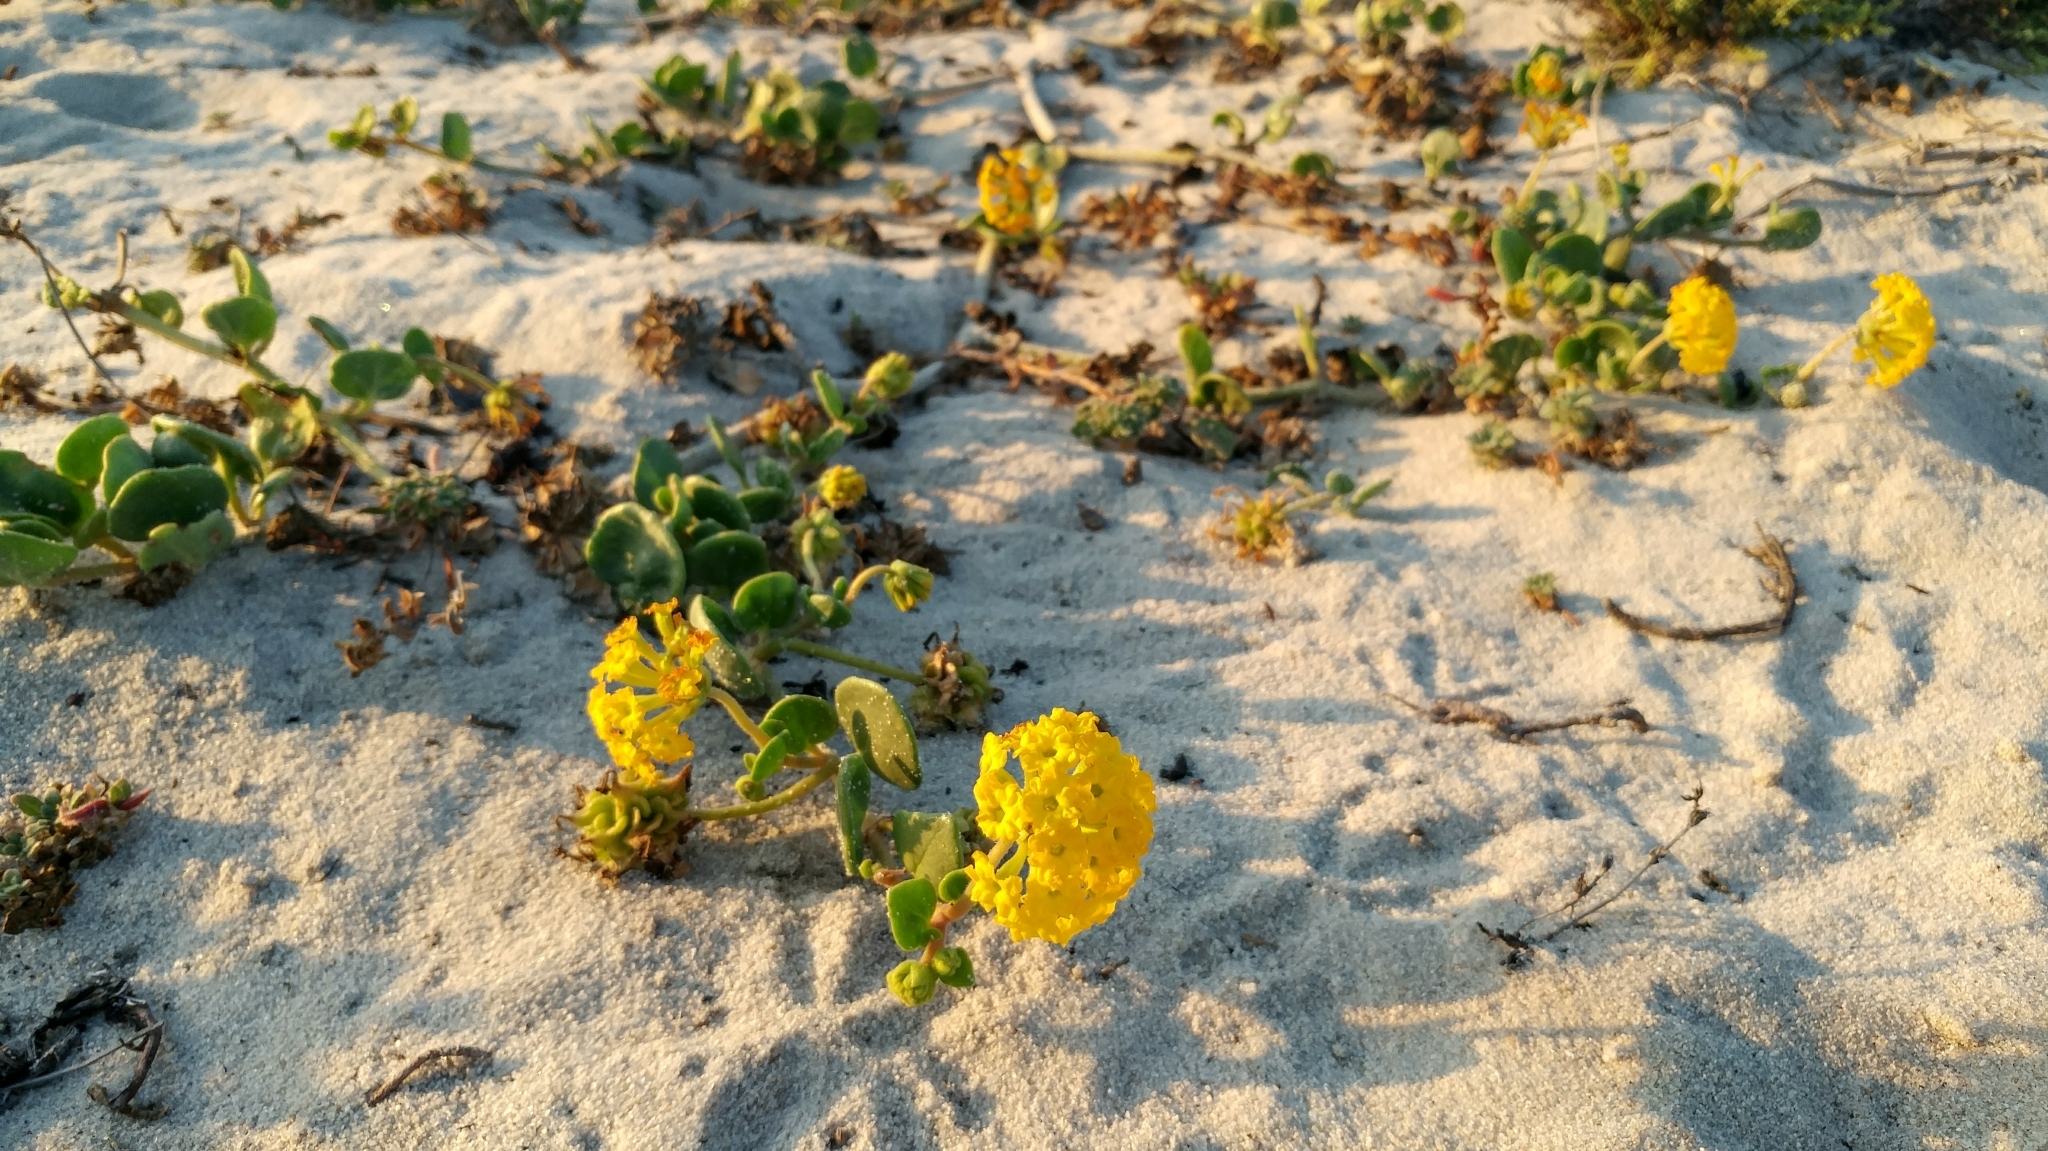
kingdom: Plantae
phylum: Tracheophyta
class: Magnoliopsida
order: Caryophyllales
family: Nyctaginaceae
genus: Abronia
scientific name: Abronia latifolia
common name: Yellow sand-verbena
